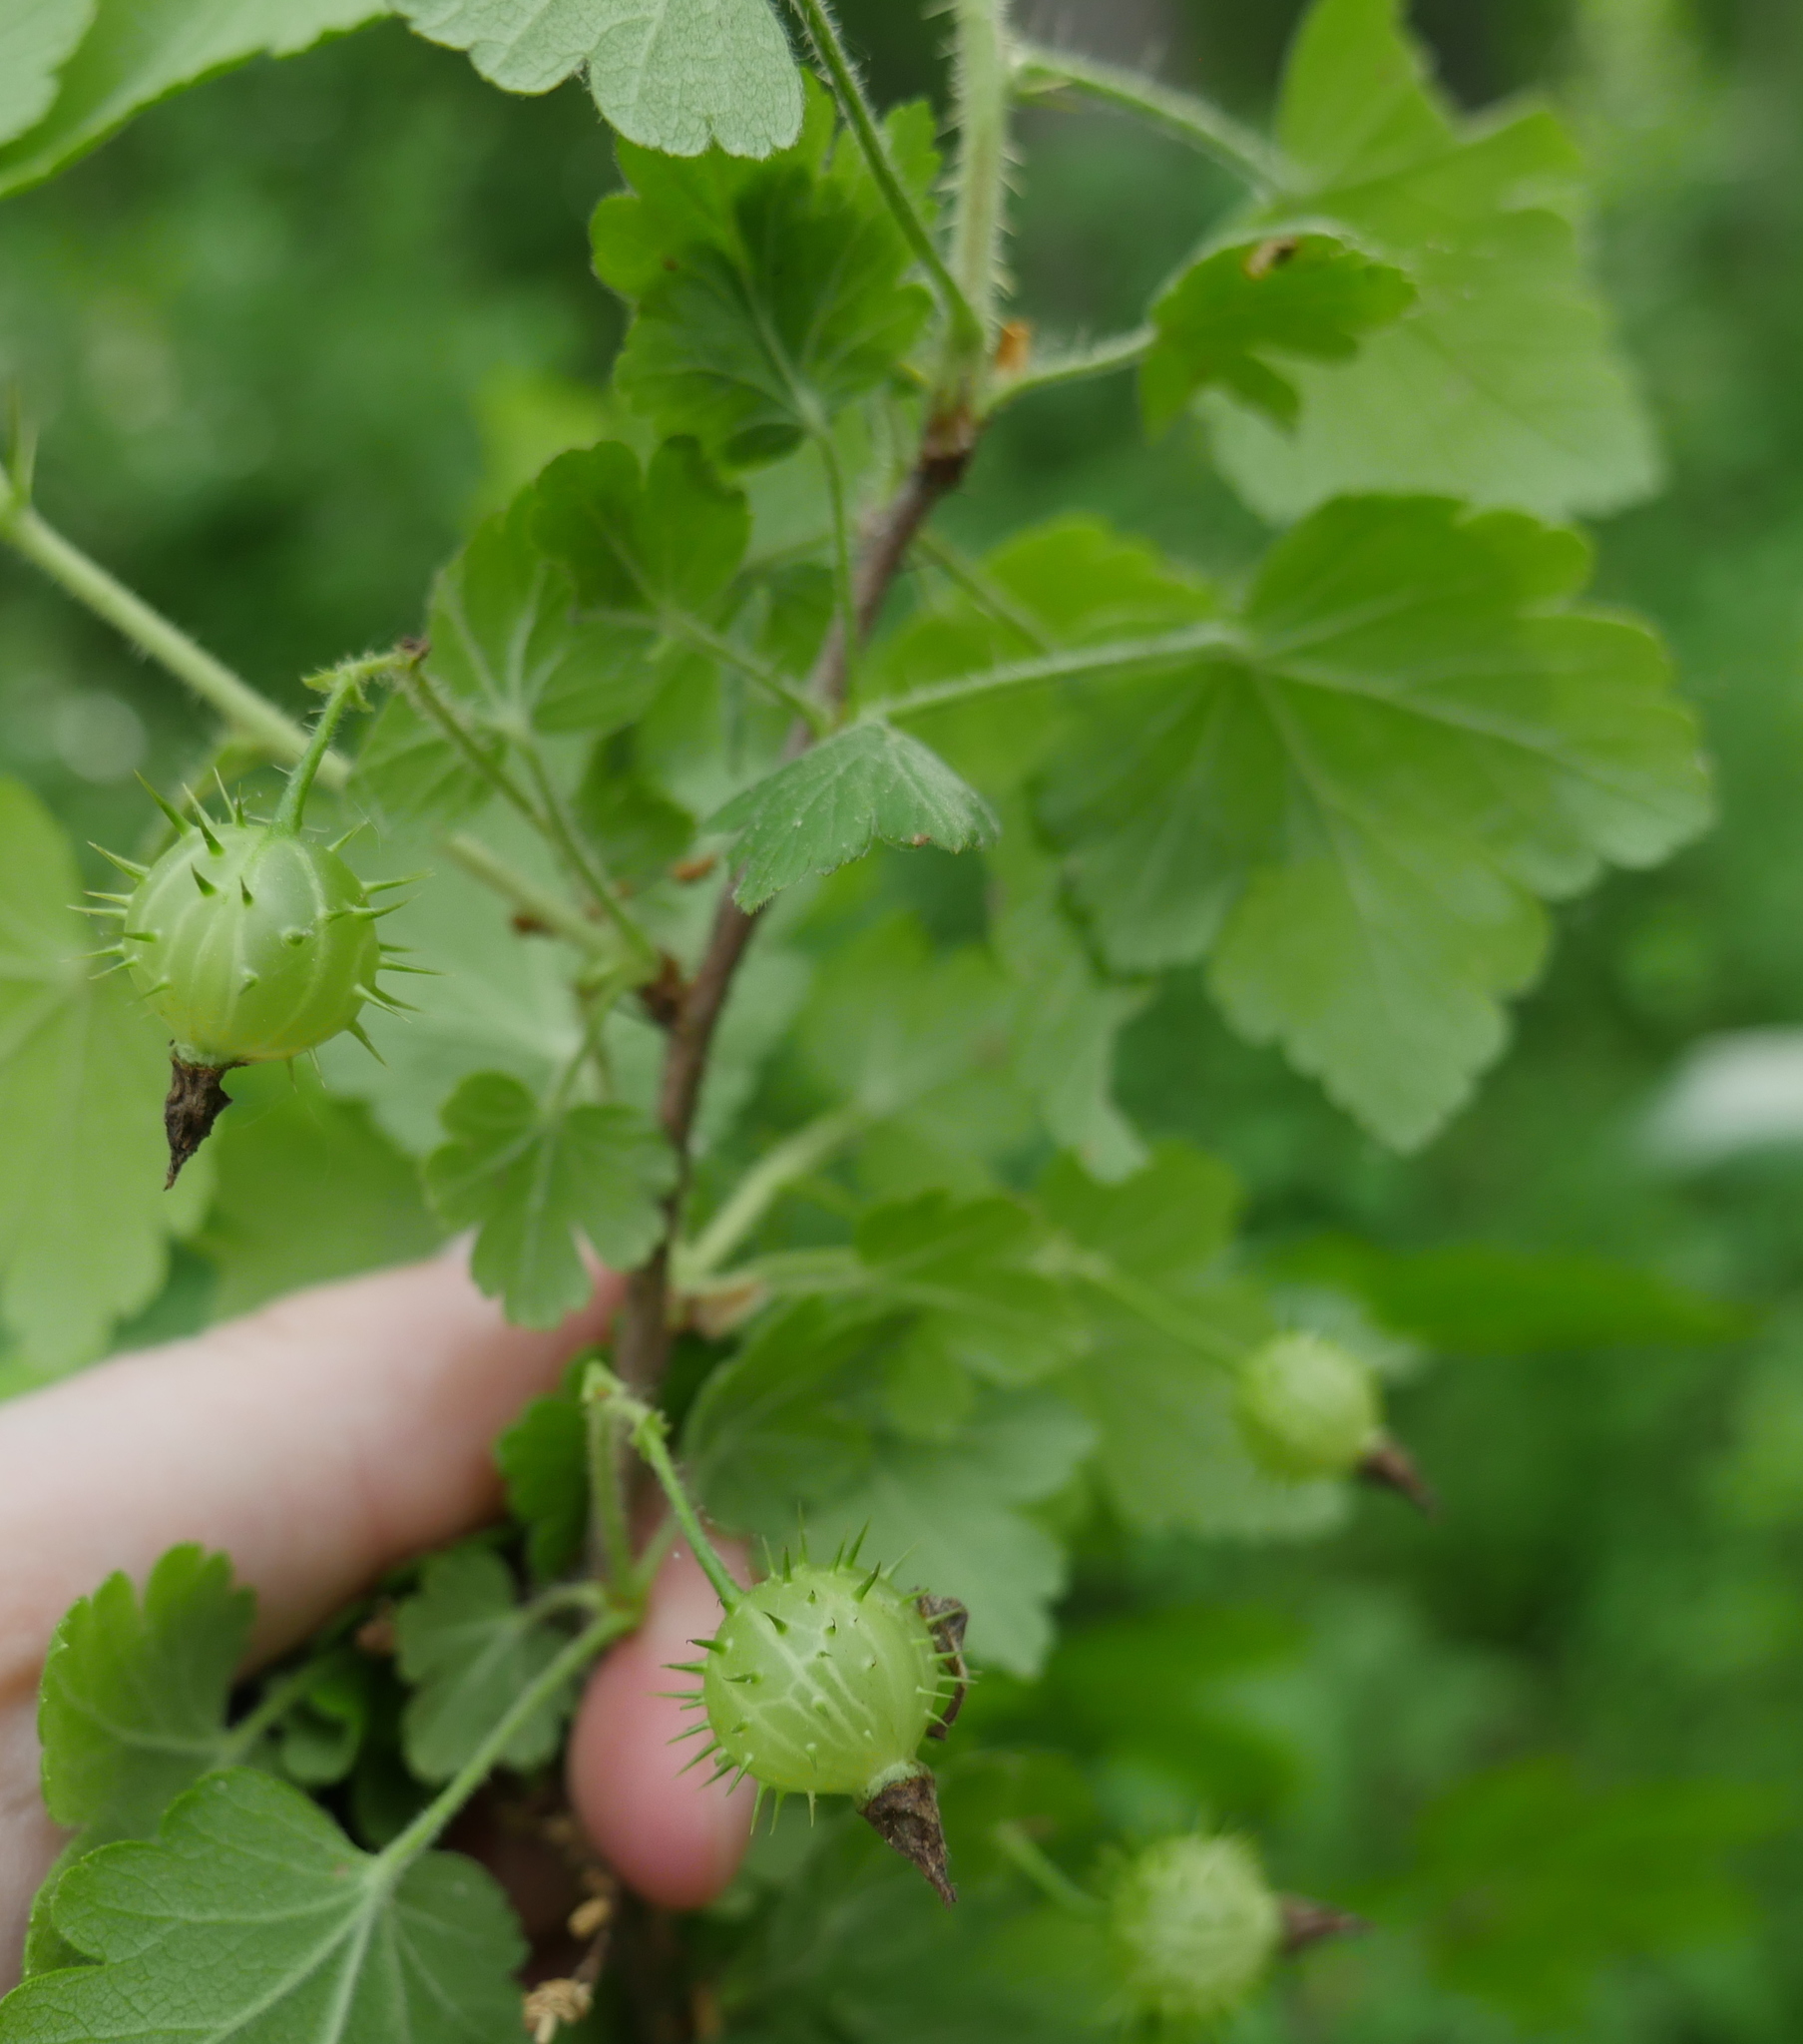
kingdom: Plantae
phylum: Tracheophyta
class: Magnoliopsida
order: Saxifragales
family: Grossulariaceae
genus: Ribes
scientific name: Ribes cynosbati
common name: American gooseberry
